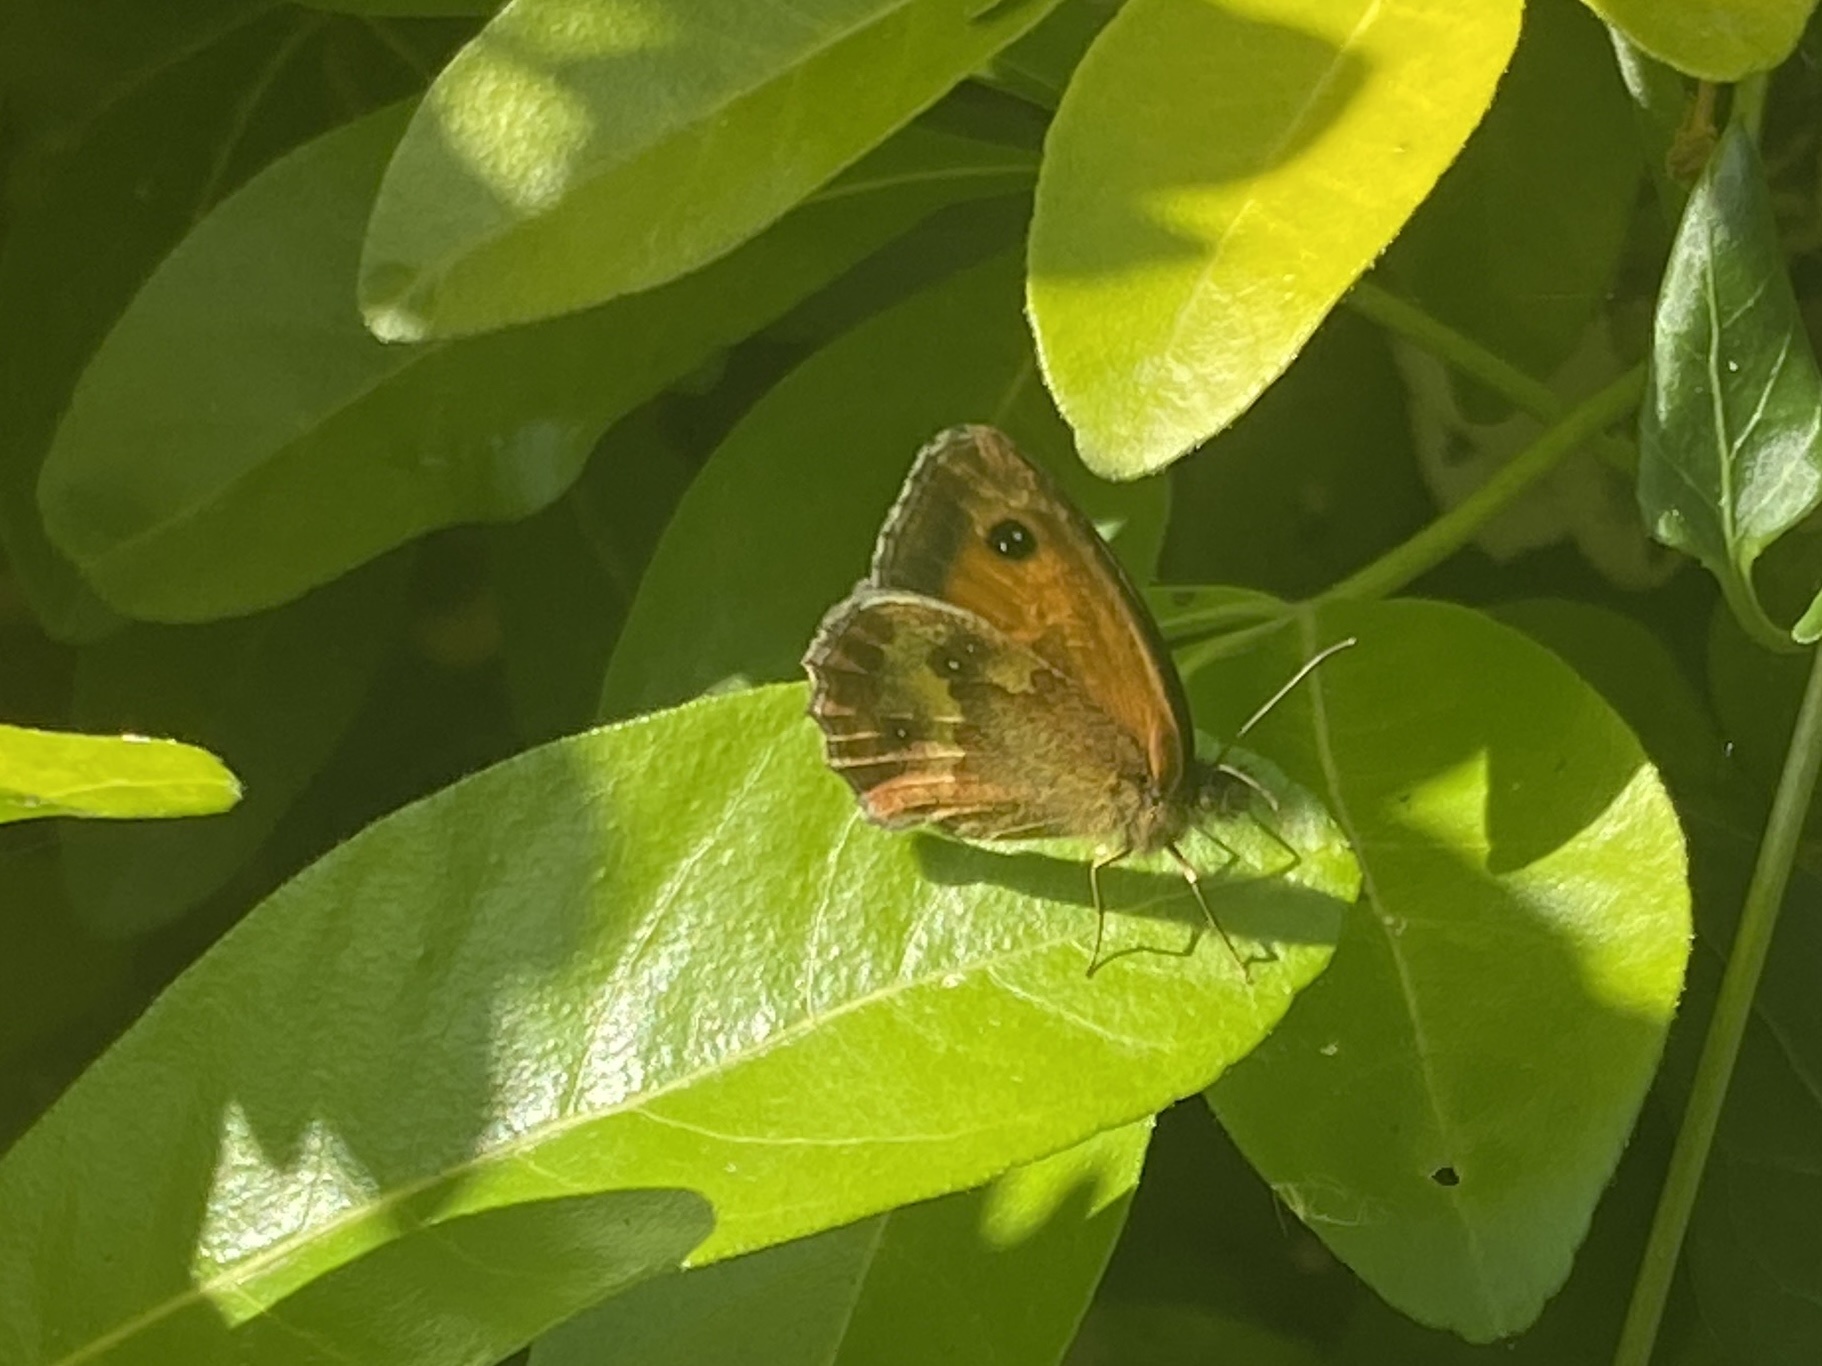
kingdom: Animalia
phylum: Arthropoda
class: Insecta
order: Lepidoptera
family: Nymphalidae
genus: Pyronia
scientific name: Pyronia tithonus
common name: Gatekeeper
